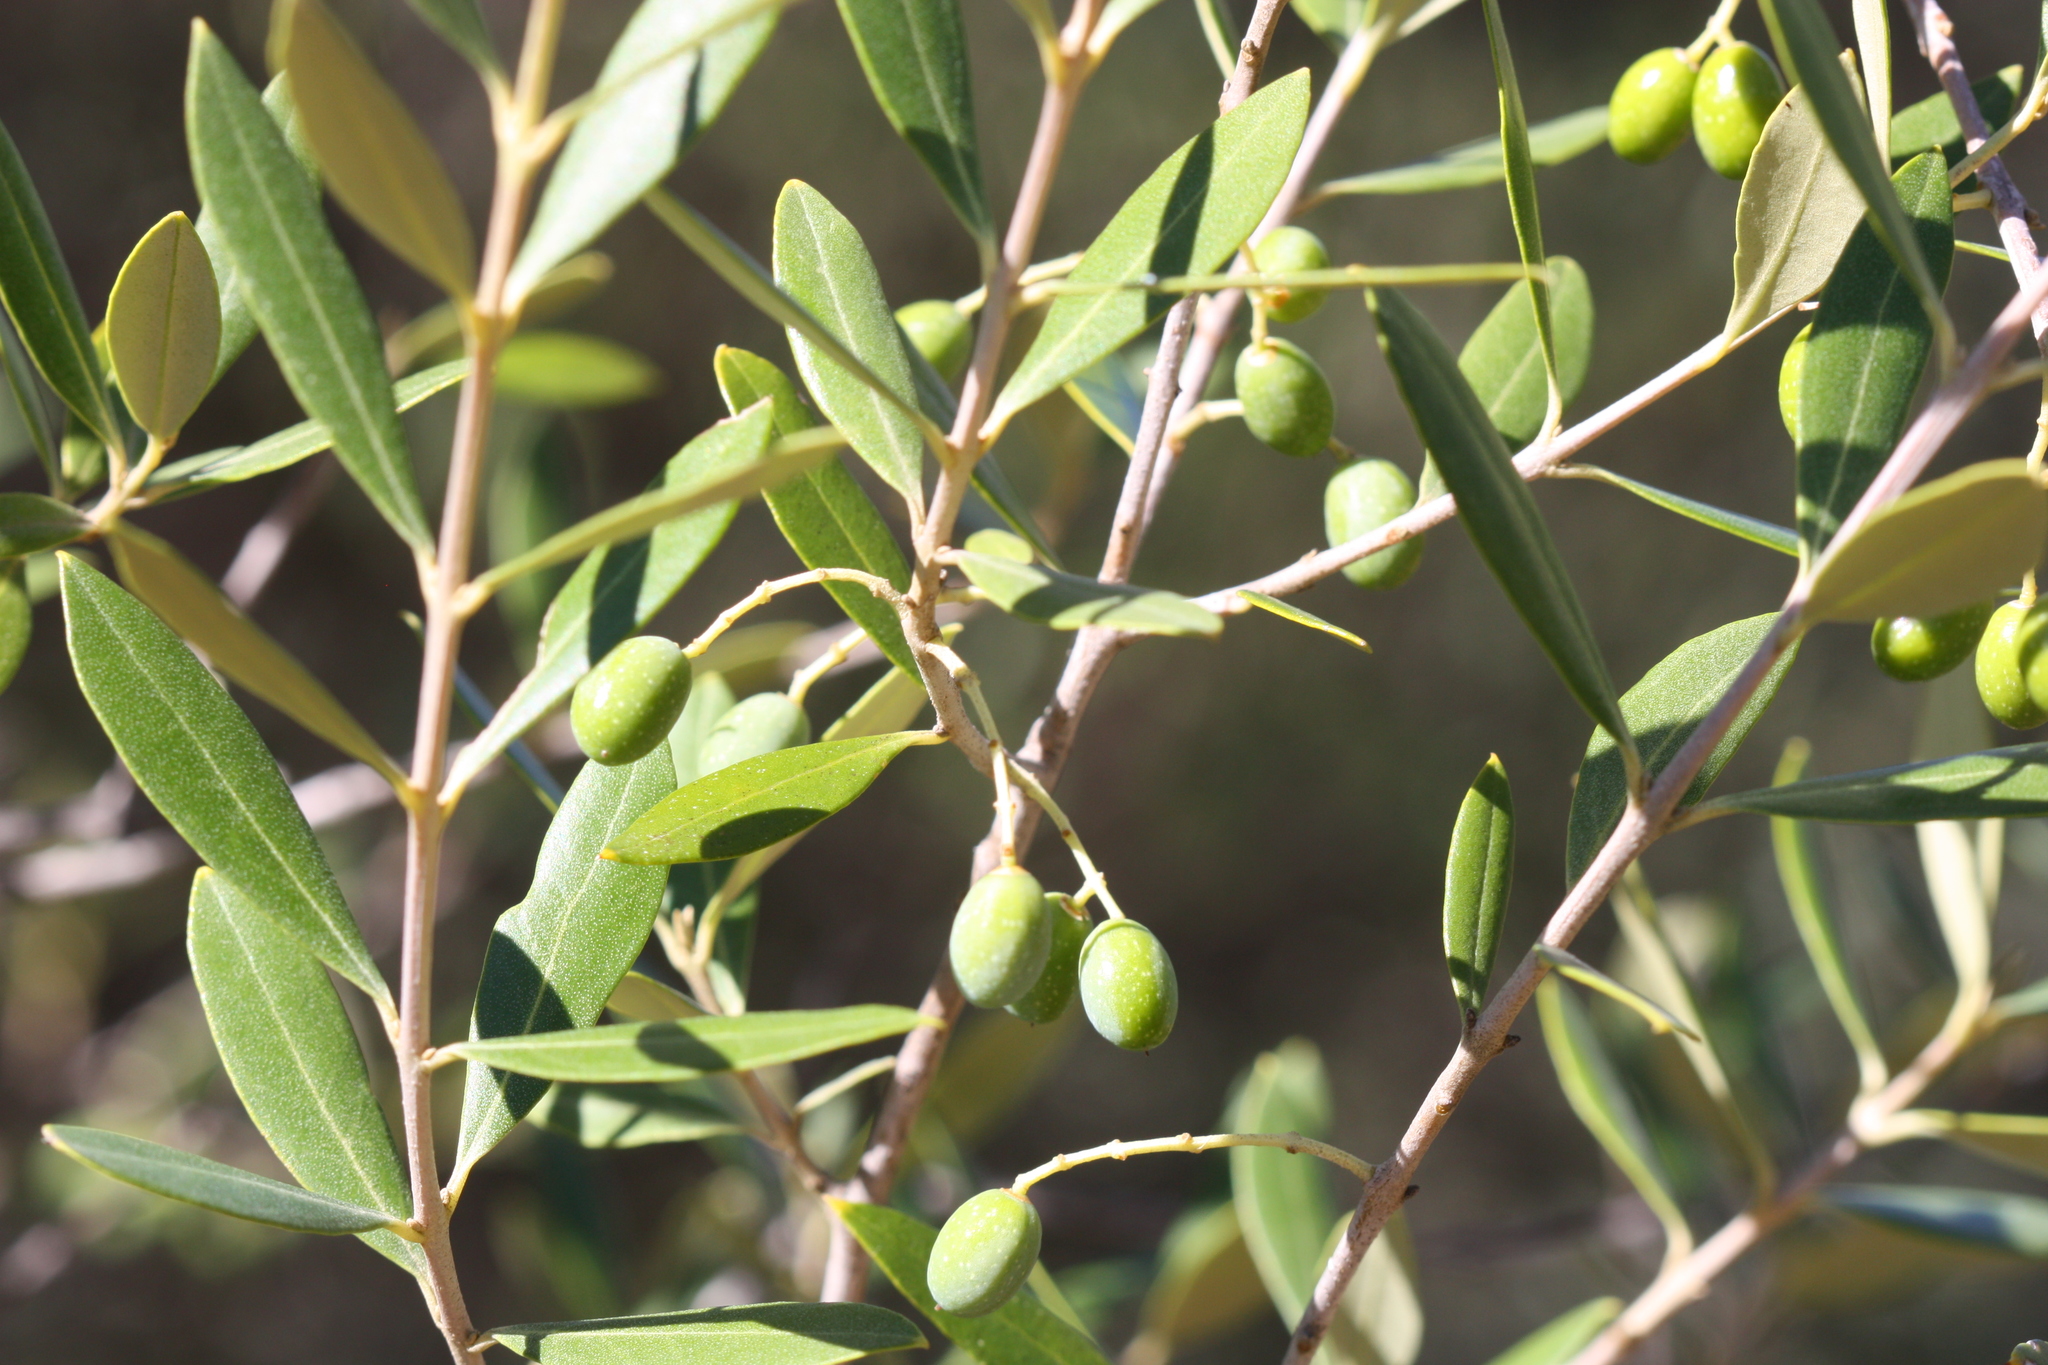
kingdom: Plantae
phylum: Tracheophyta
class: Magnoliopsida
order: Lamiales
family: Oleaceae
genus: Olea
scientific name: Olea europaea
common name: Olive
